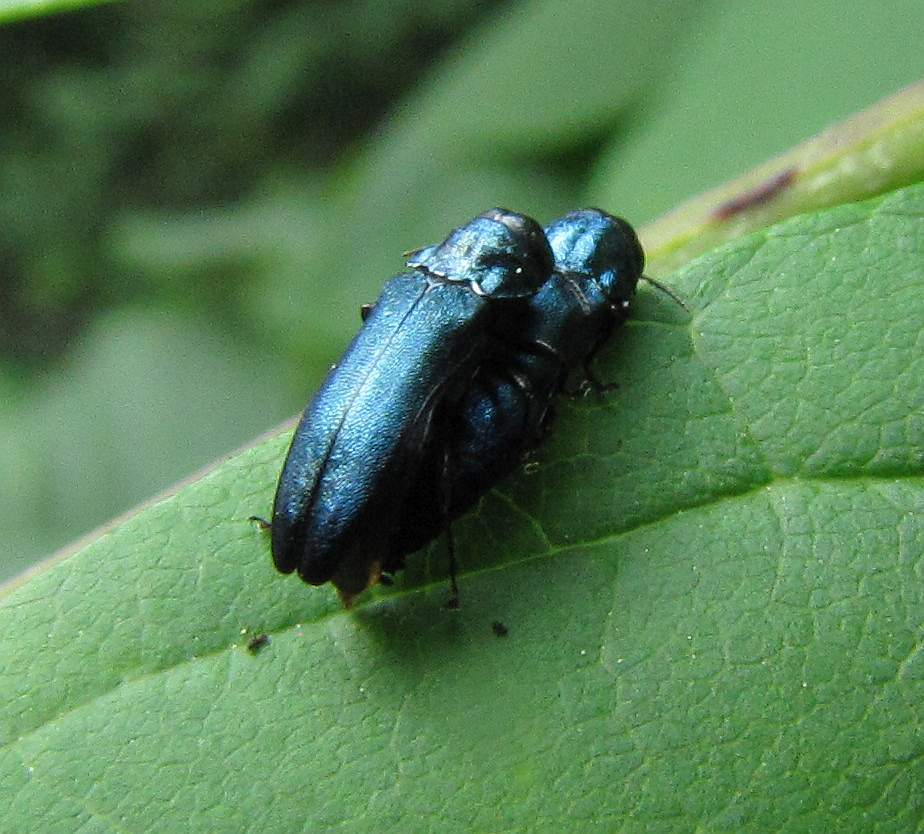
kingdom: Animalia
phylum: Arthropoda
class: Insecta
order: Coleoptera
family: Buprestidae
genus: Agrilus
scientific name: Agrilus cyanescens
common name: Bluish borer beetle
